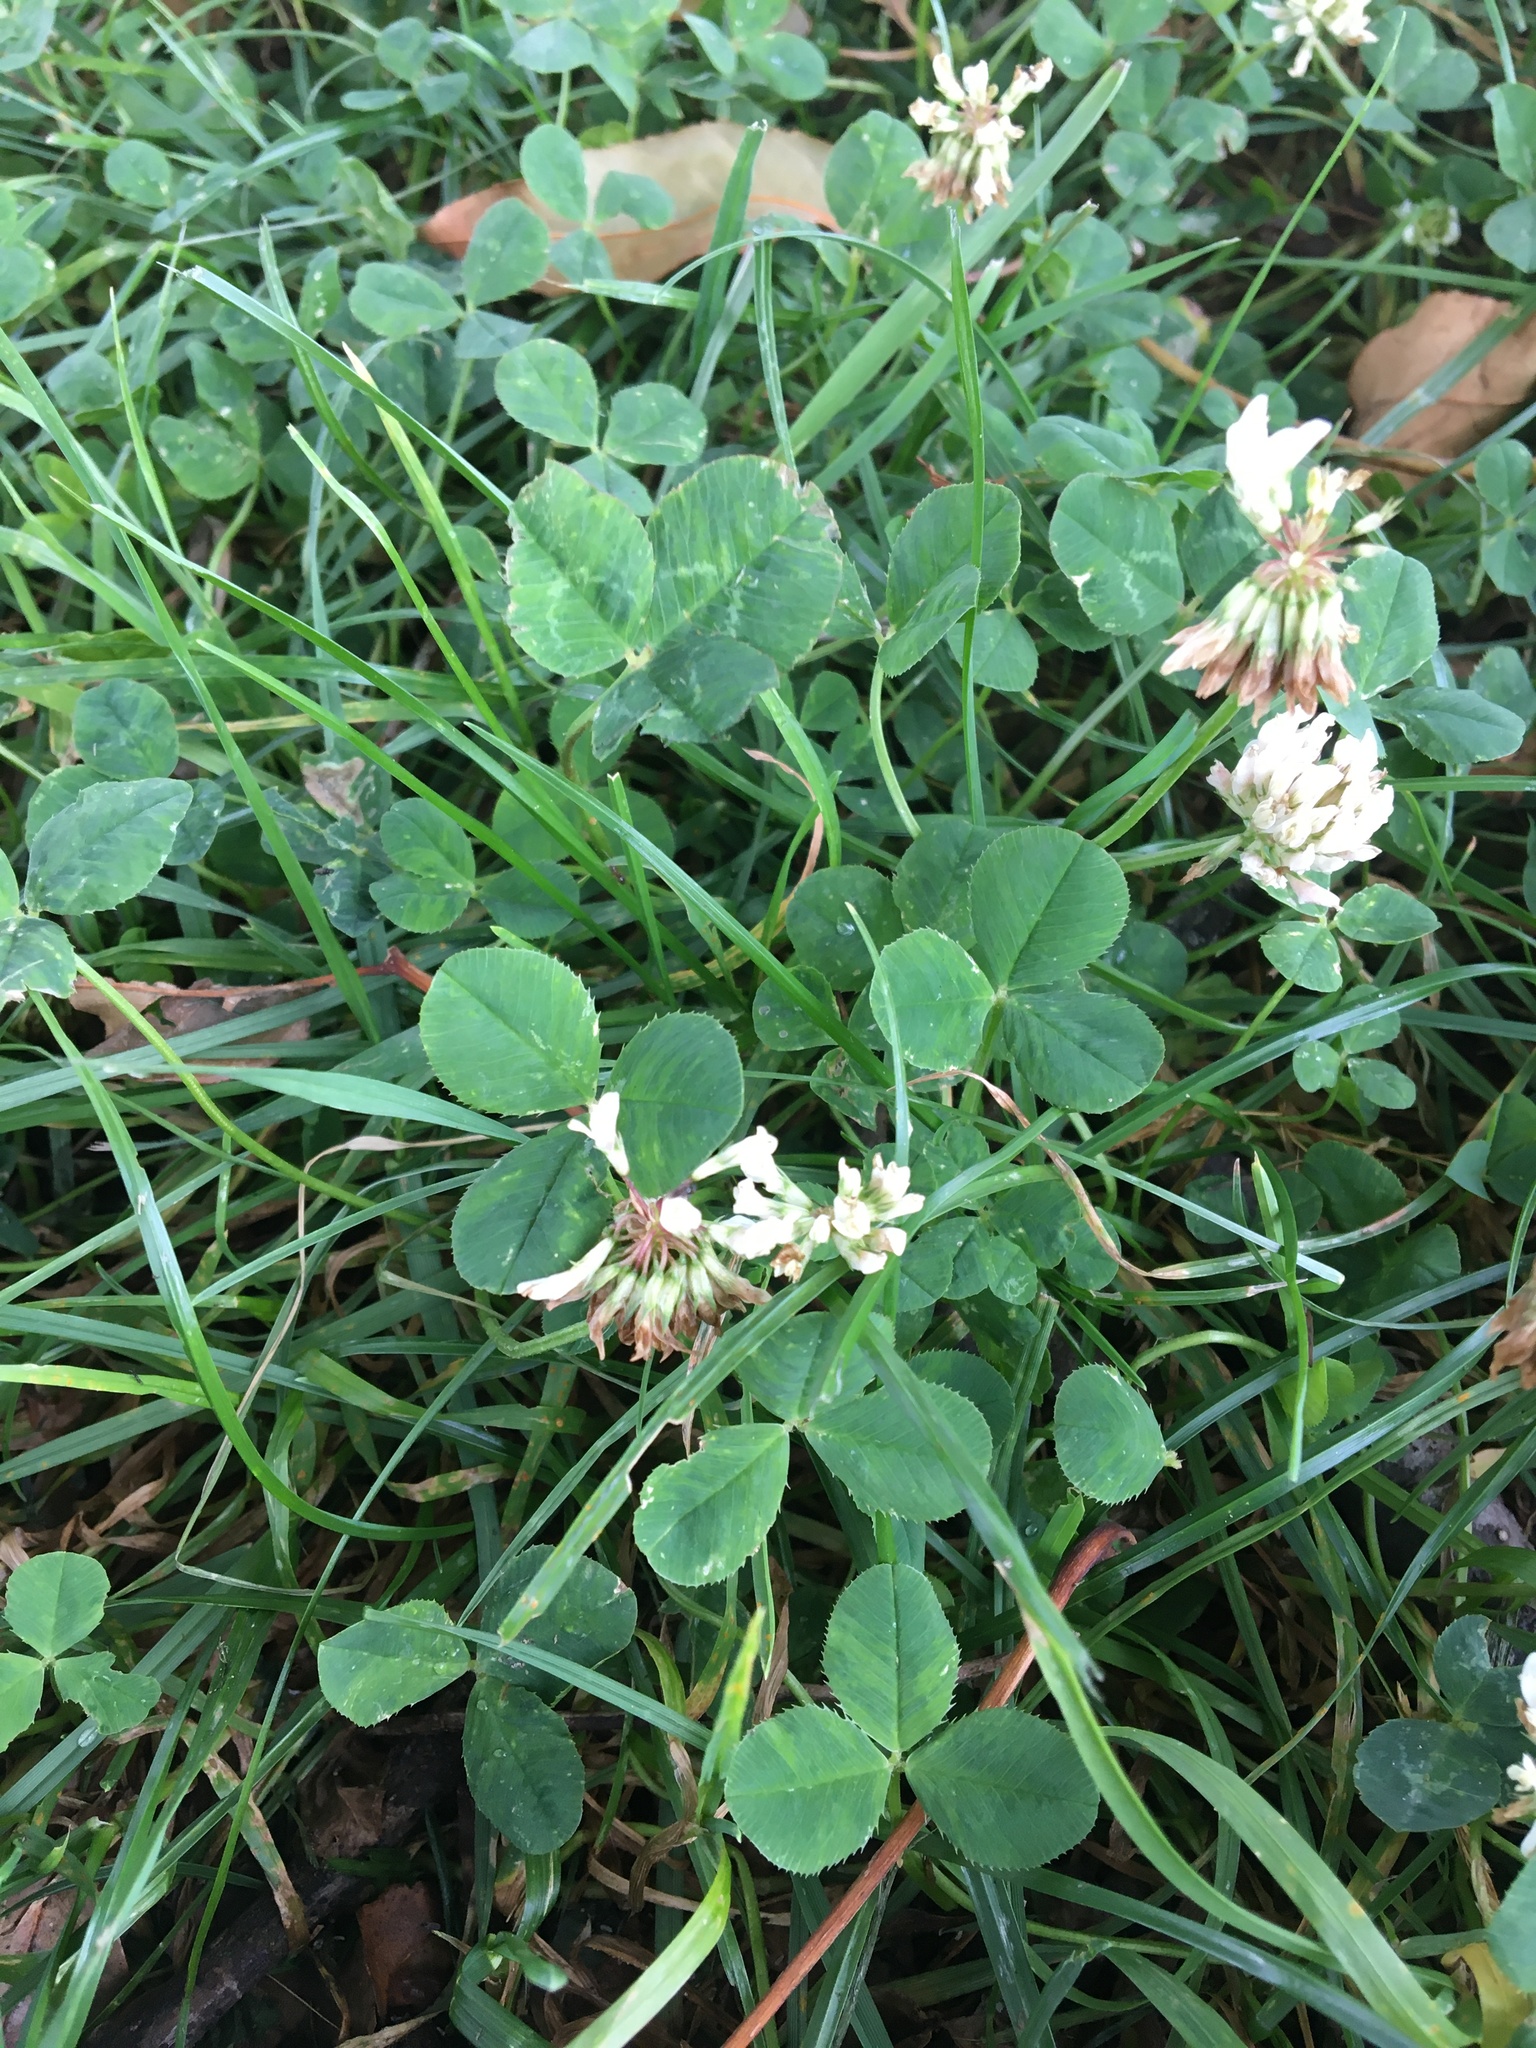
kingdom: Plantae
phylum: Tracheophyta
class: Magnoliopsida
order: Fabales
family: Fabaceae
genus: Trifolium
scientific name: Trifolium repens
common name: White clover
